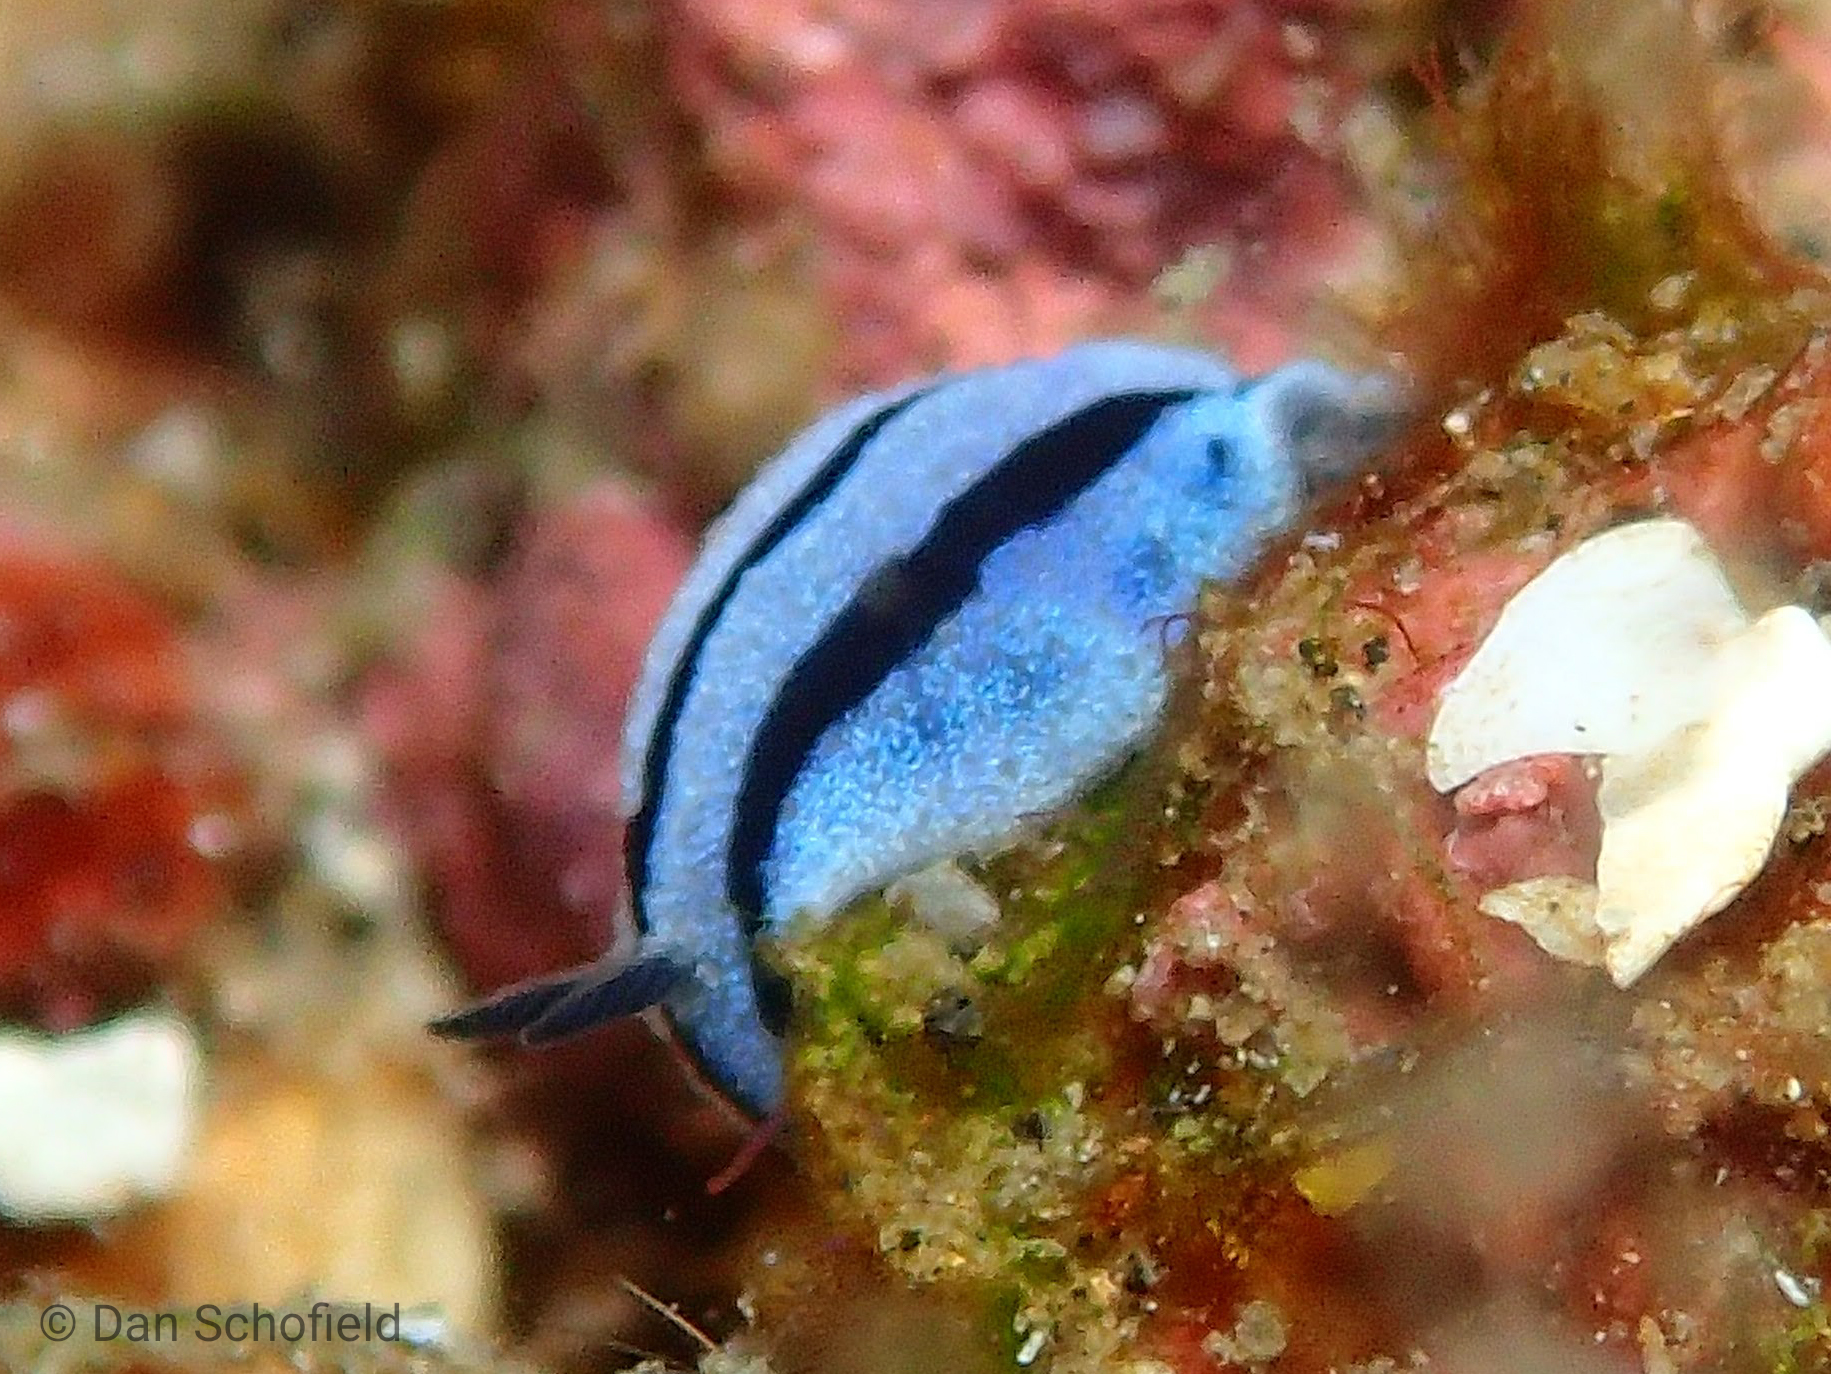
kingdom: Animalia
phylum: Mollusca
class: Gastropoda
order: Nudibranchia
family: Phyllidiidae
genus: Phyllidiopsis
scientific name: Phyllidiopsis annae
